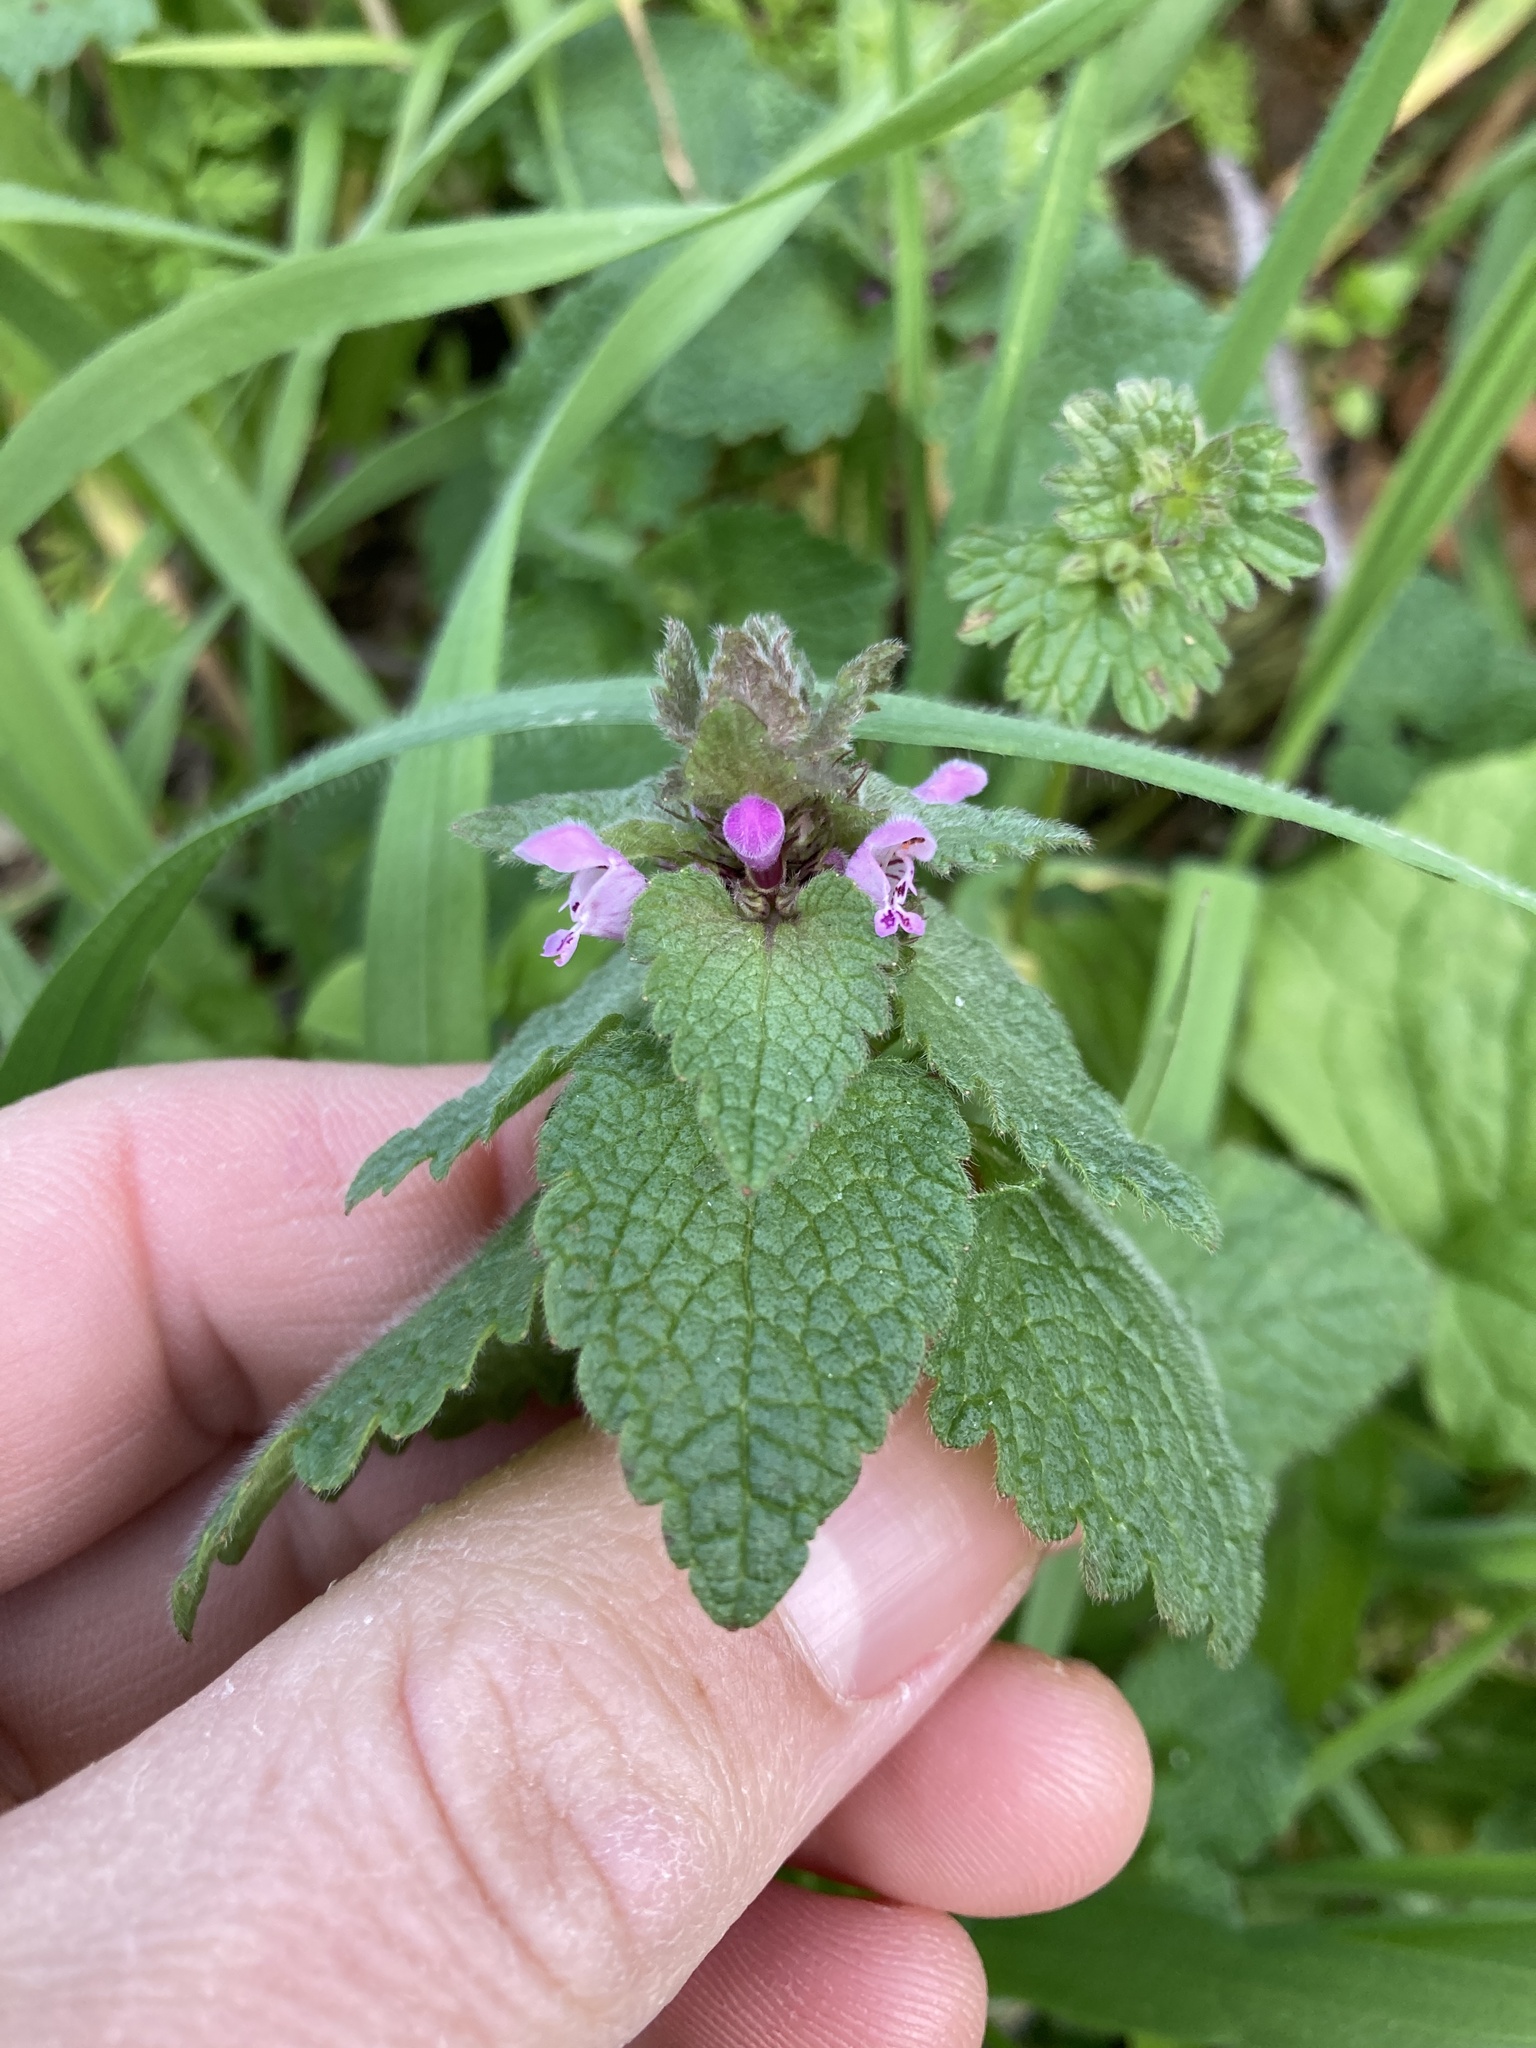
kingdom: Plantae
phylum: Tracheophyta
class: Magnoliopsida
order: Lamiales
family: Lamiaceae
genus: Lamium
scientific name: Lamium purpureum
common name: Red dead-nettle
